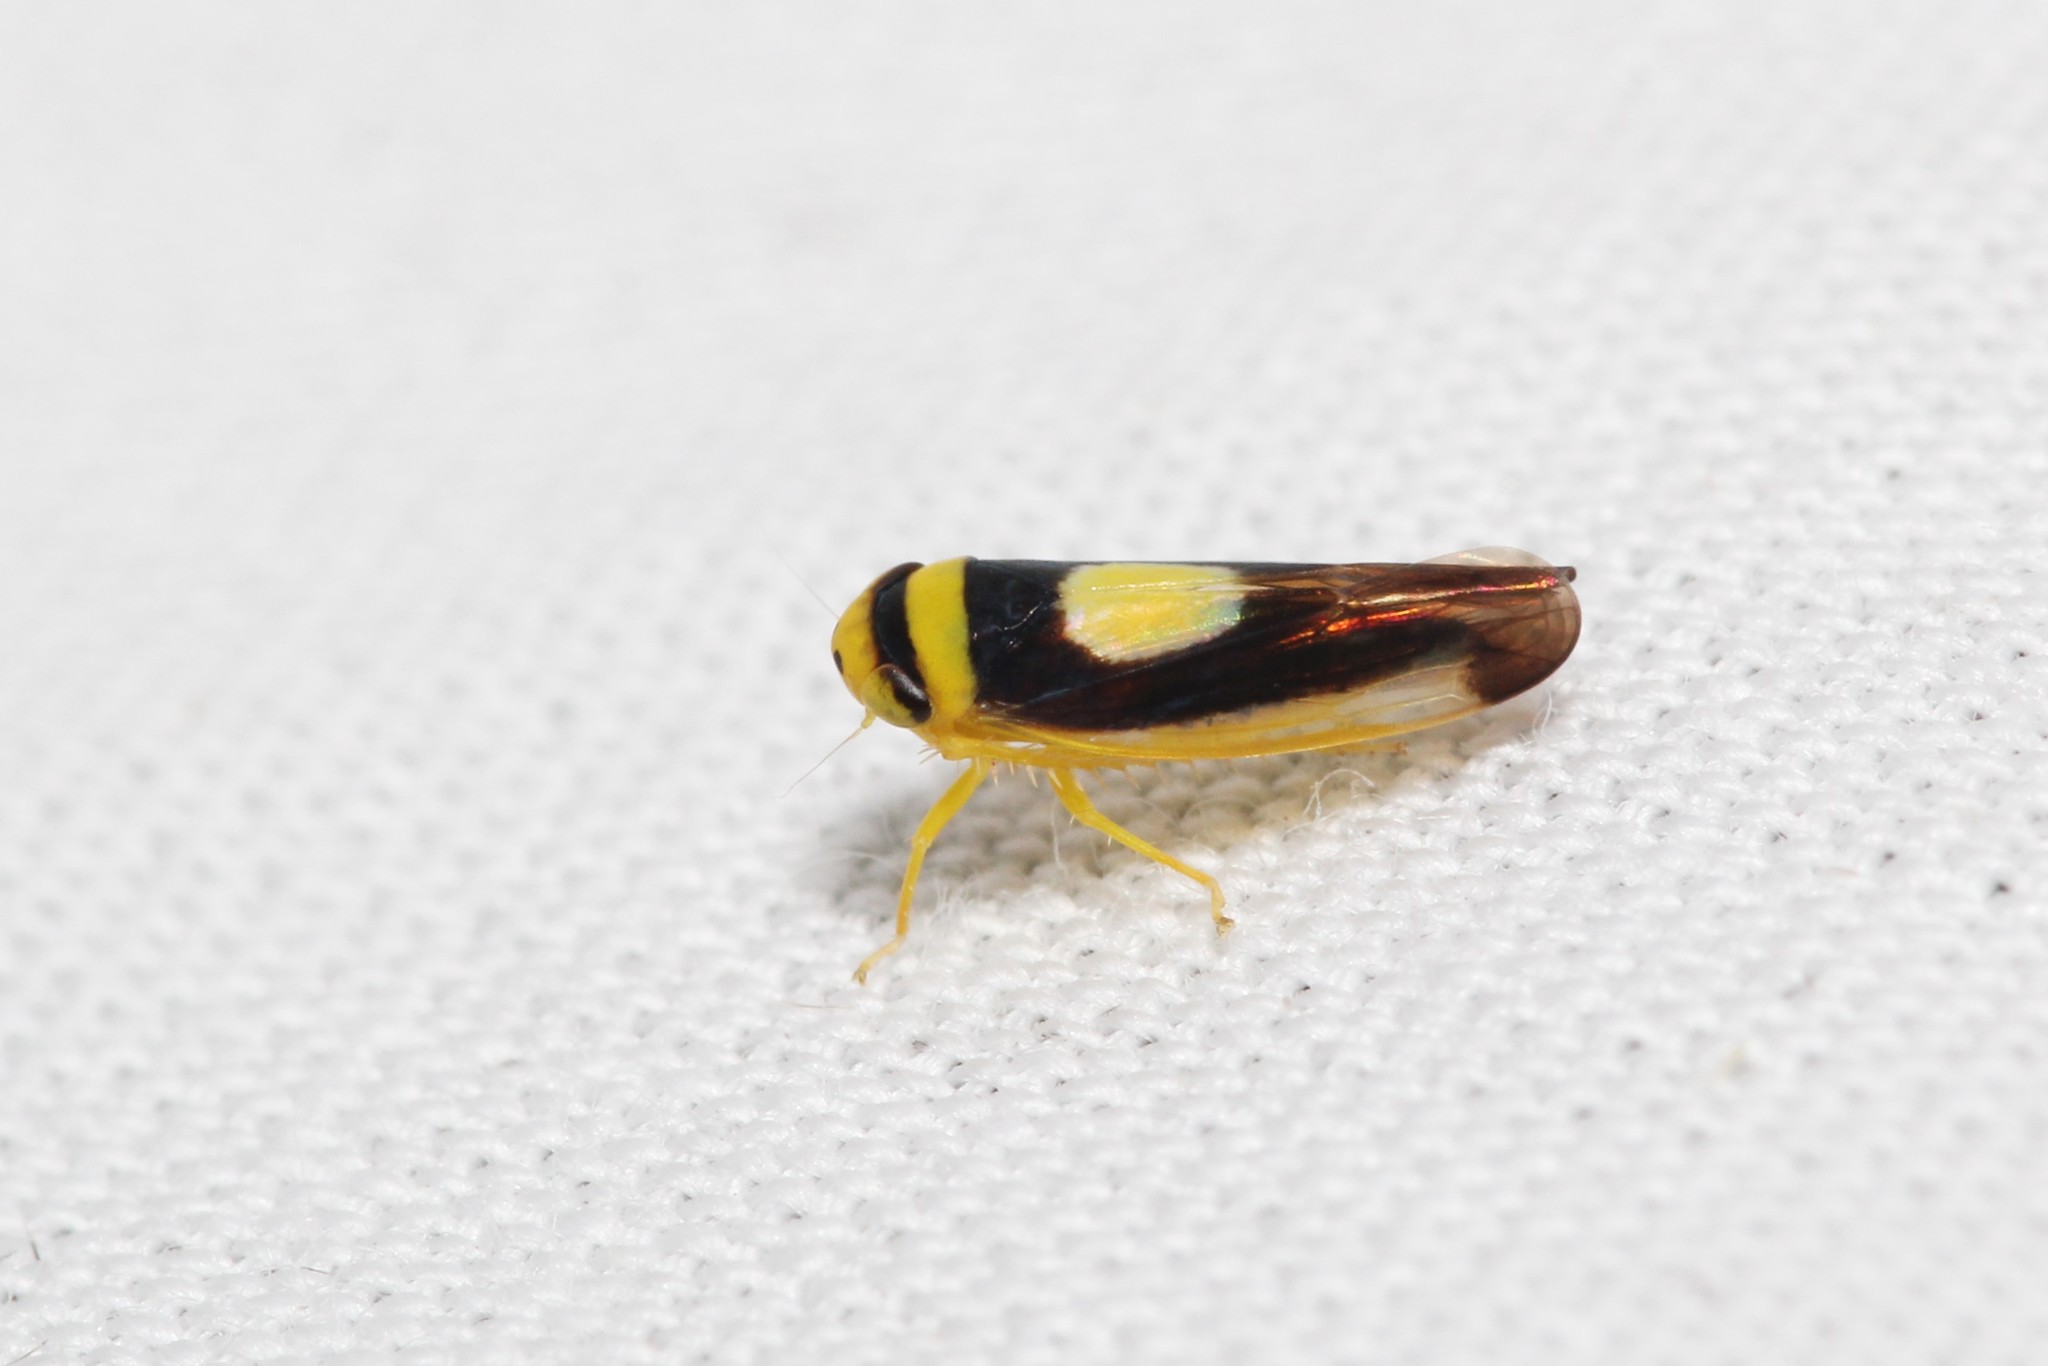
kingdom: Animalia
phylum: Arthropoda
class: Insecta
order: Hemiptera
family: Cicadellidae
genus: Colladonus
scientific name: Colladonus clitellarius
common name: The saddleback leafhopper
